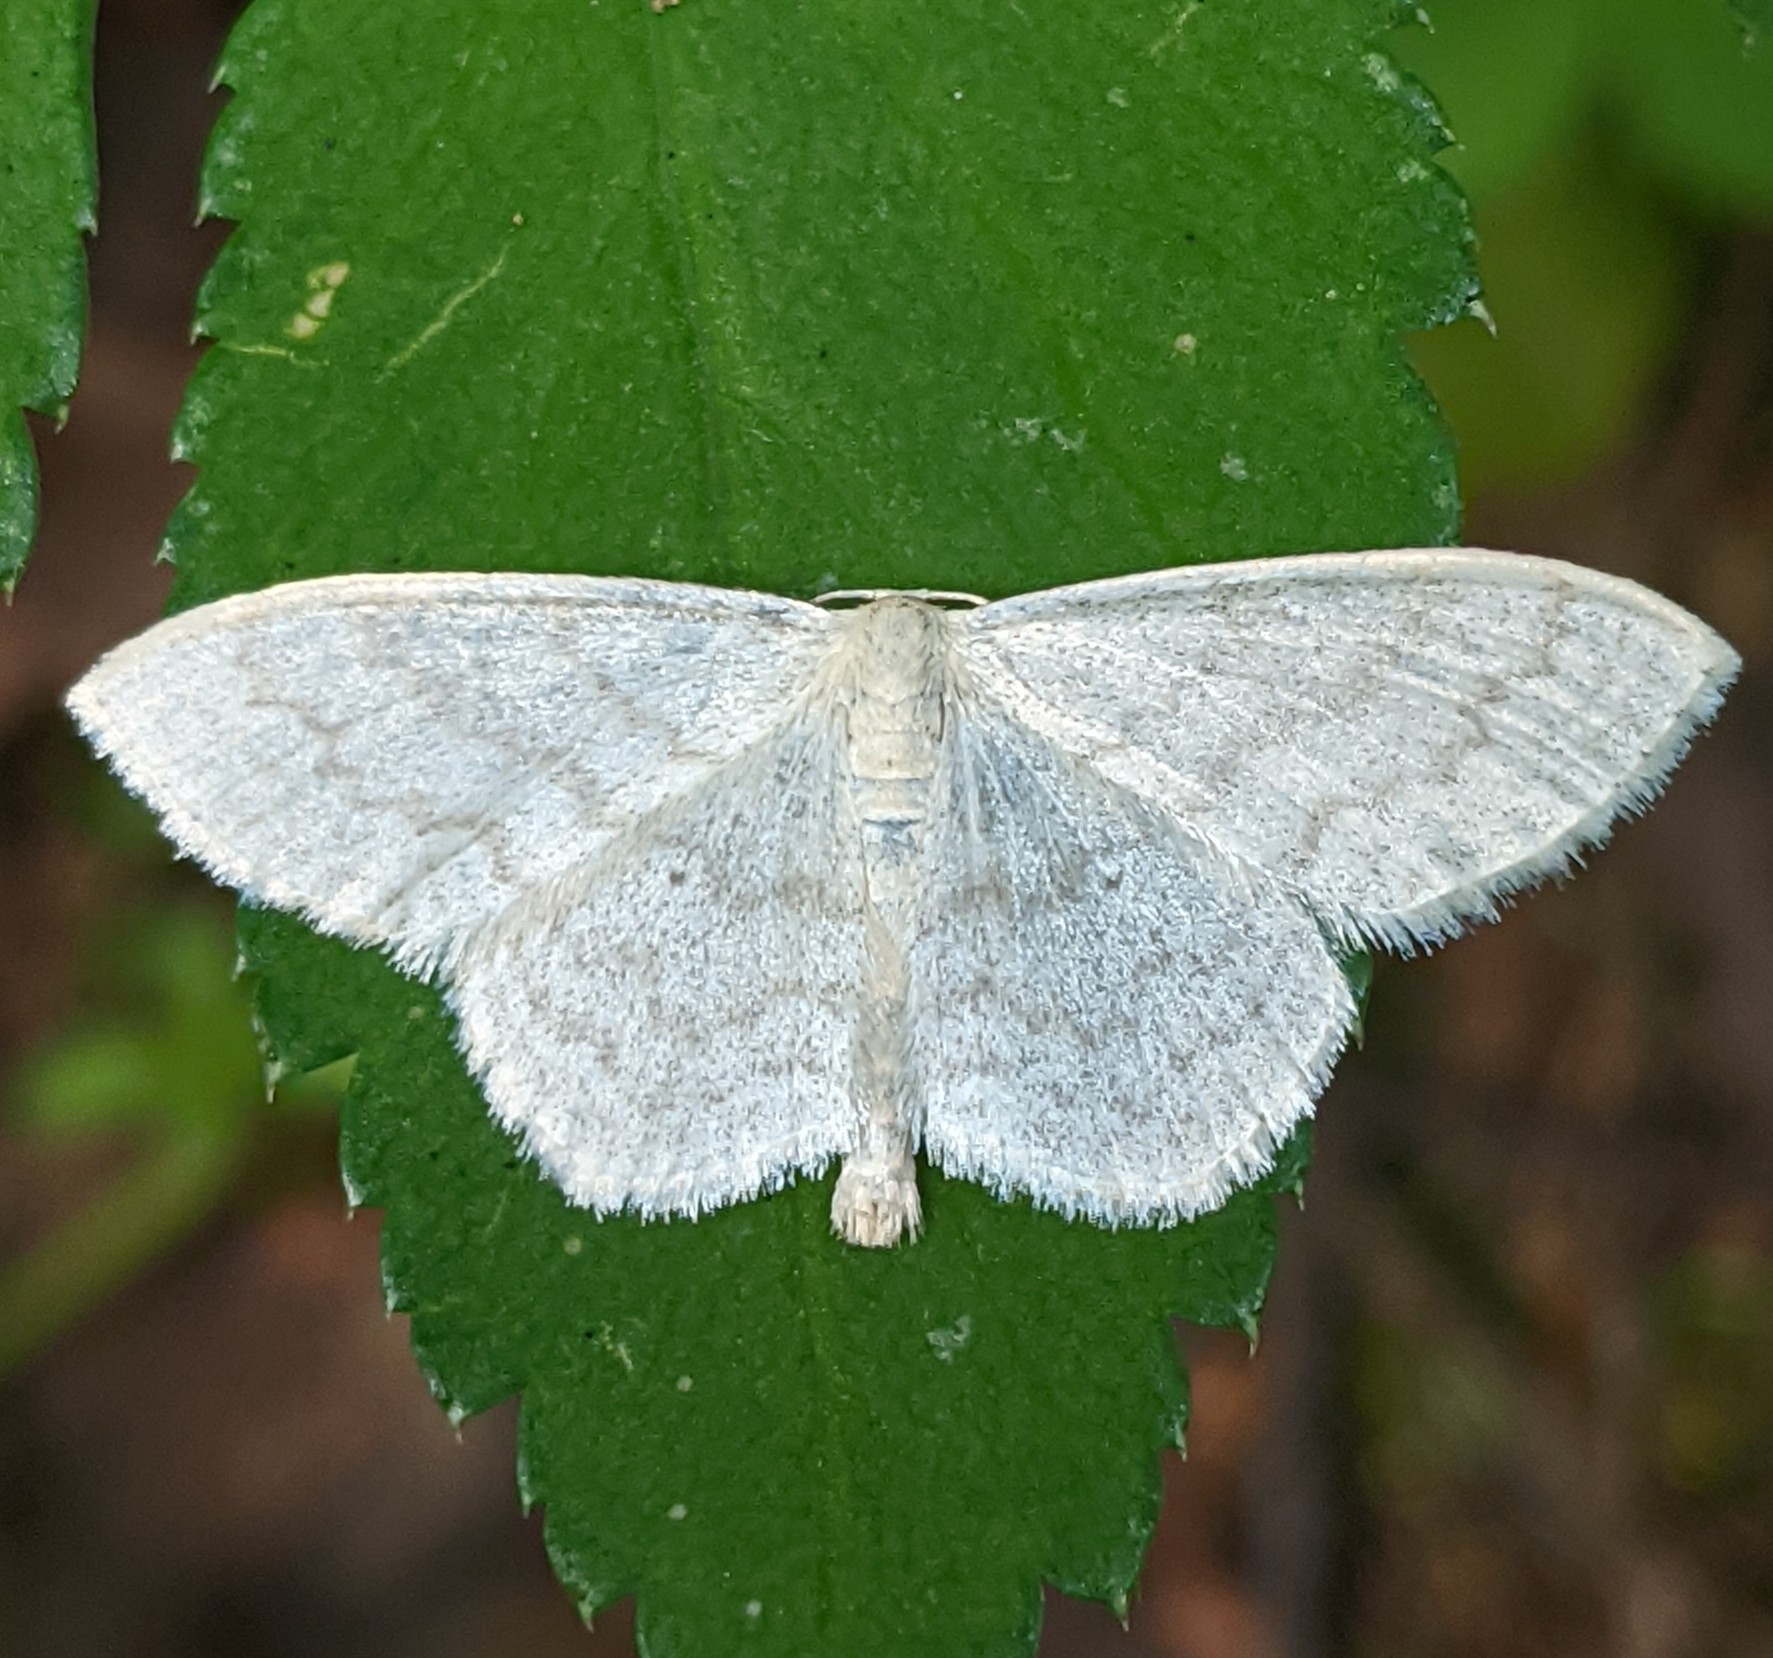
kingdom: Animalia
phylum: Arthropoda
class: Insecta
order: Lepidoptera
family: Geometridae
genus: Scopula
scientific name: Scopula floslactata
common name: Cream wave
